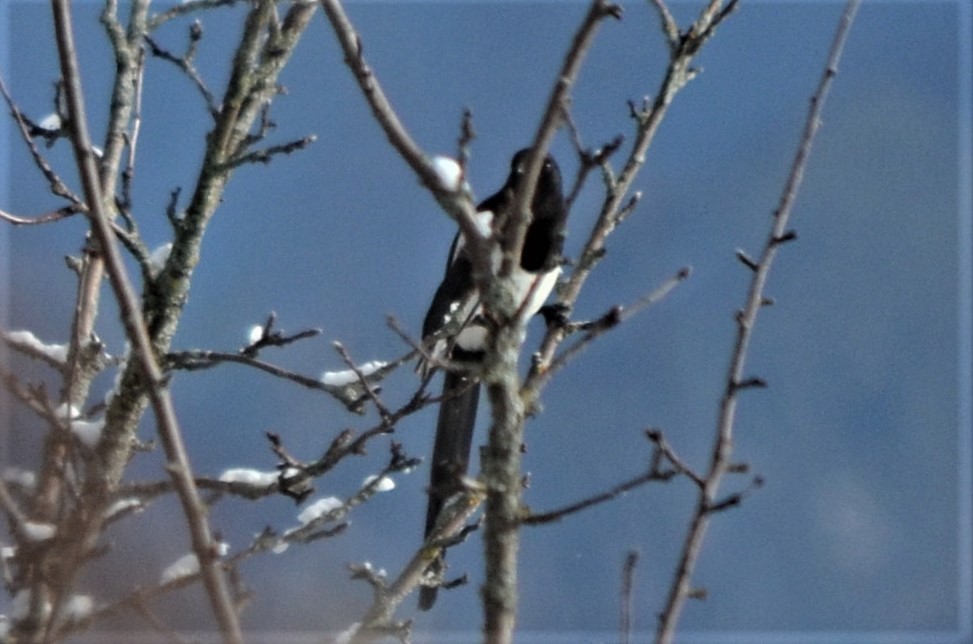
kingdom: Animalia
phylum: Chordata
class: Aves
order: Passeriformes
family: Corvidae
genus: Pica
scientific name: Pica pica
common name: Eurasian magpie
